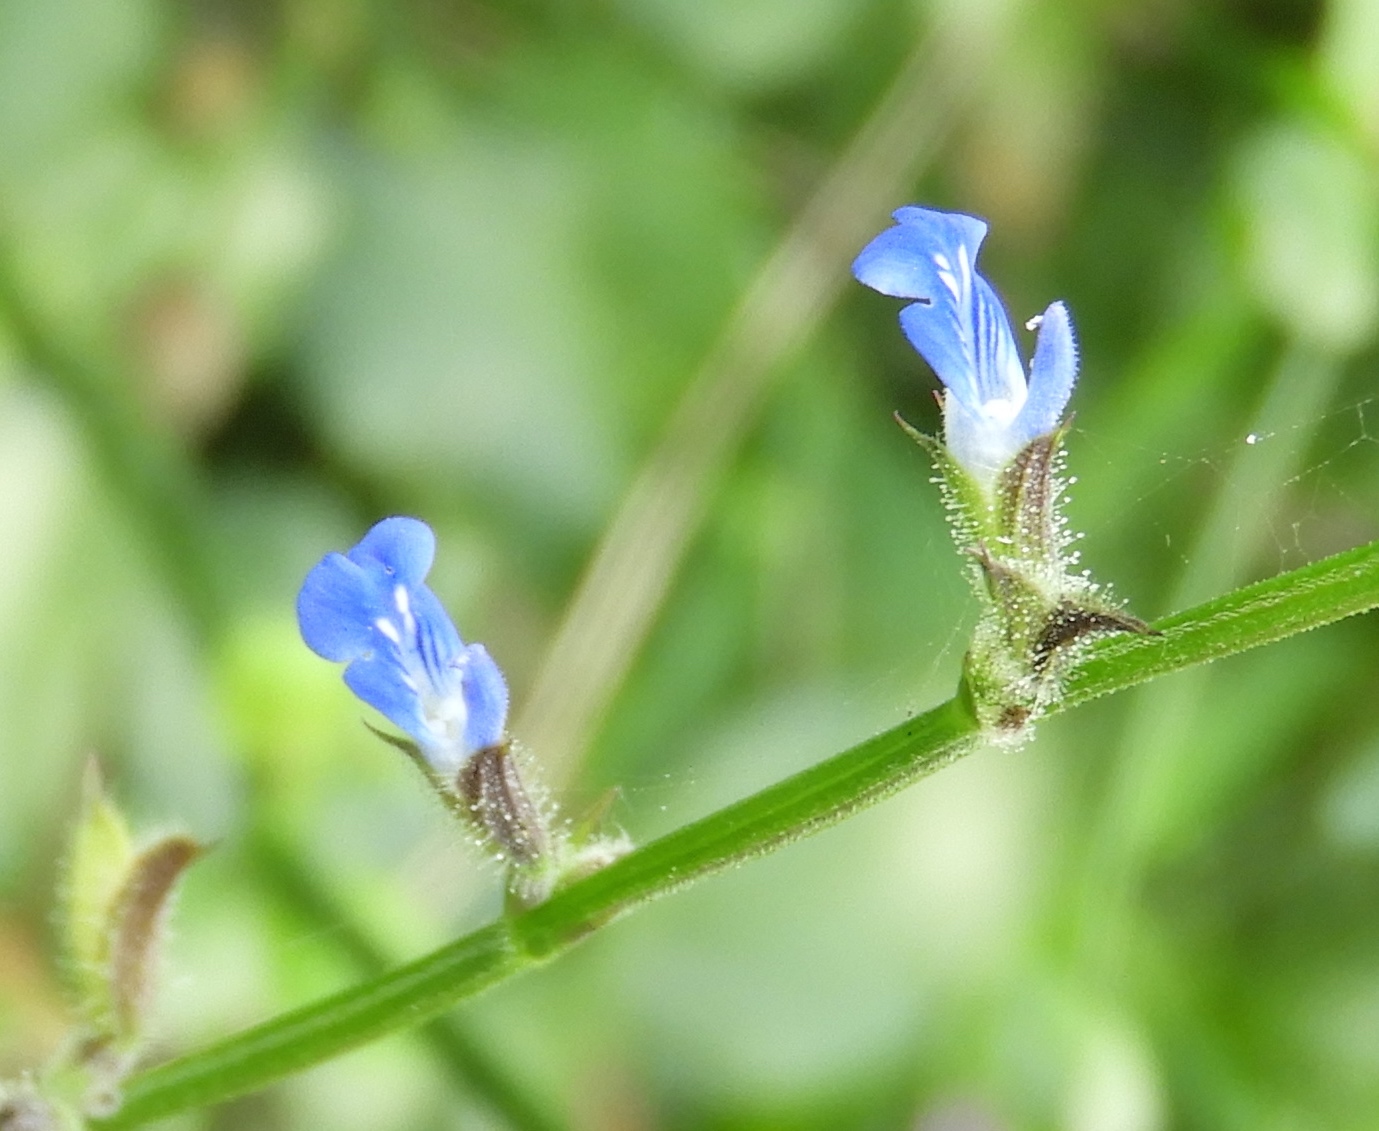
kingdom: Plantae
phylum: Tracheophyta
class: Magnoliopsida
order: Lamiales
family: Lamiaceae
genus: Salvia
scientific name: Salvia misella
